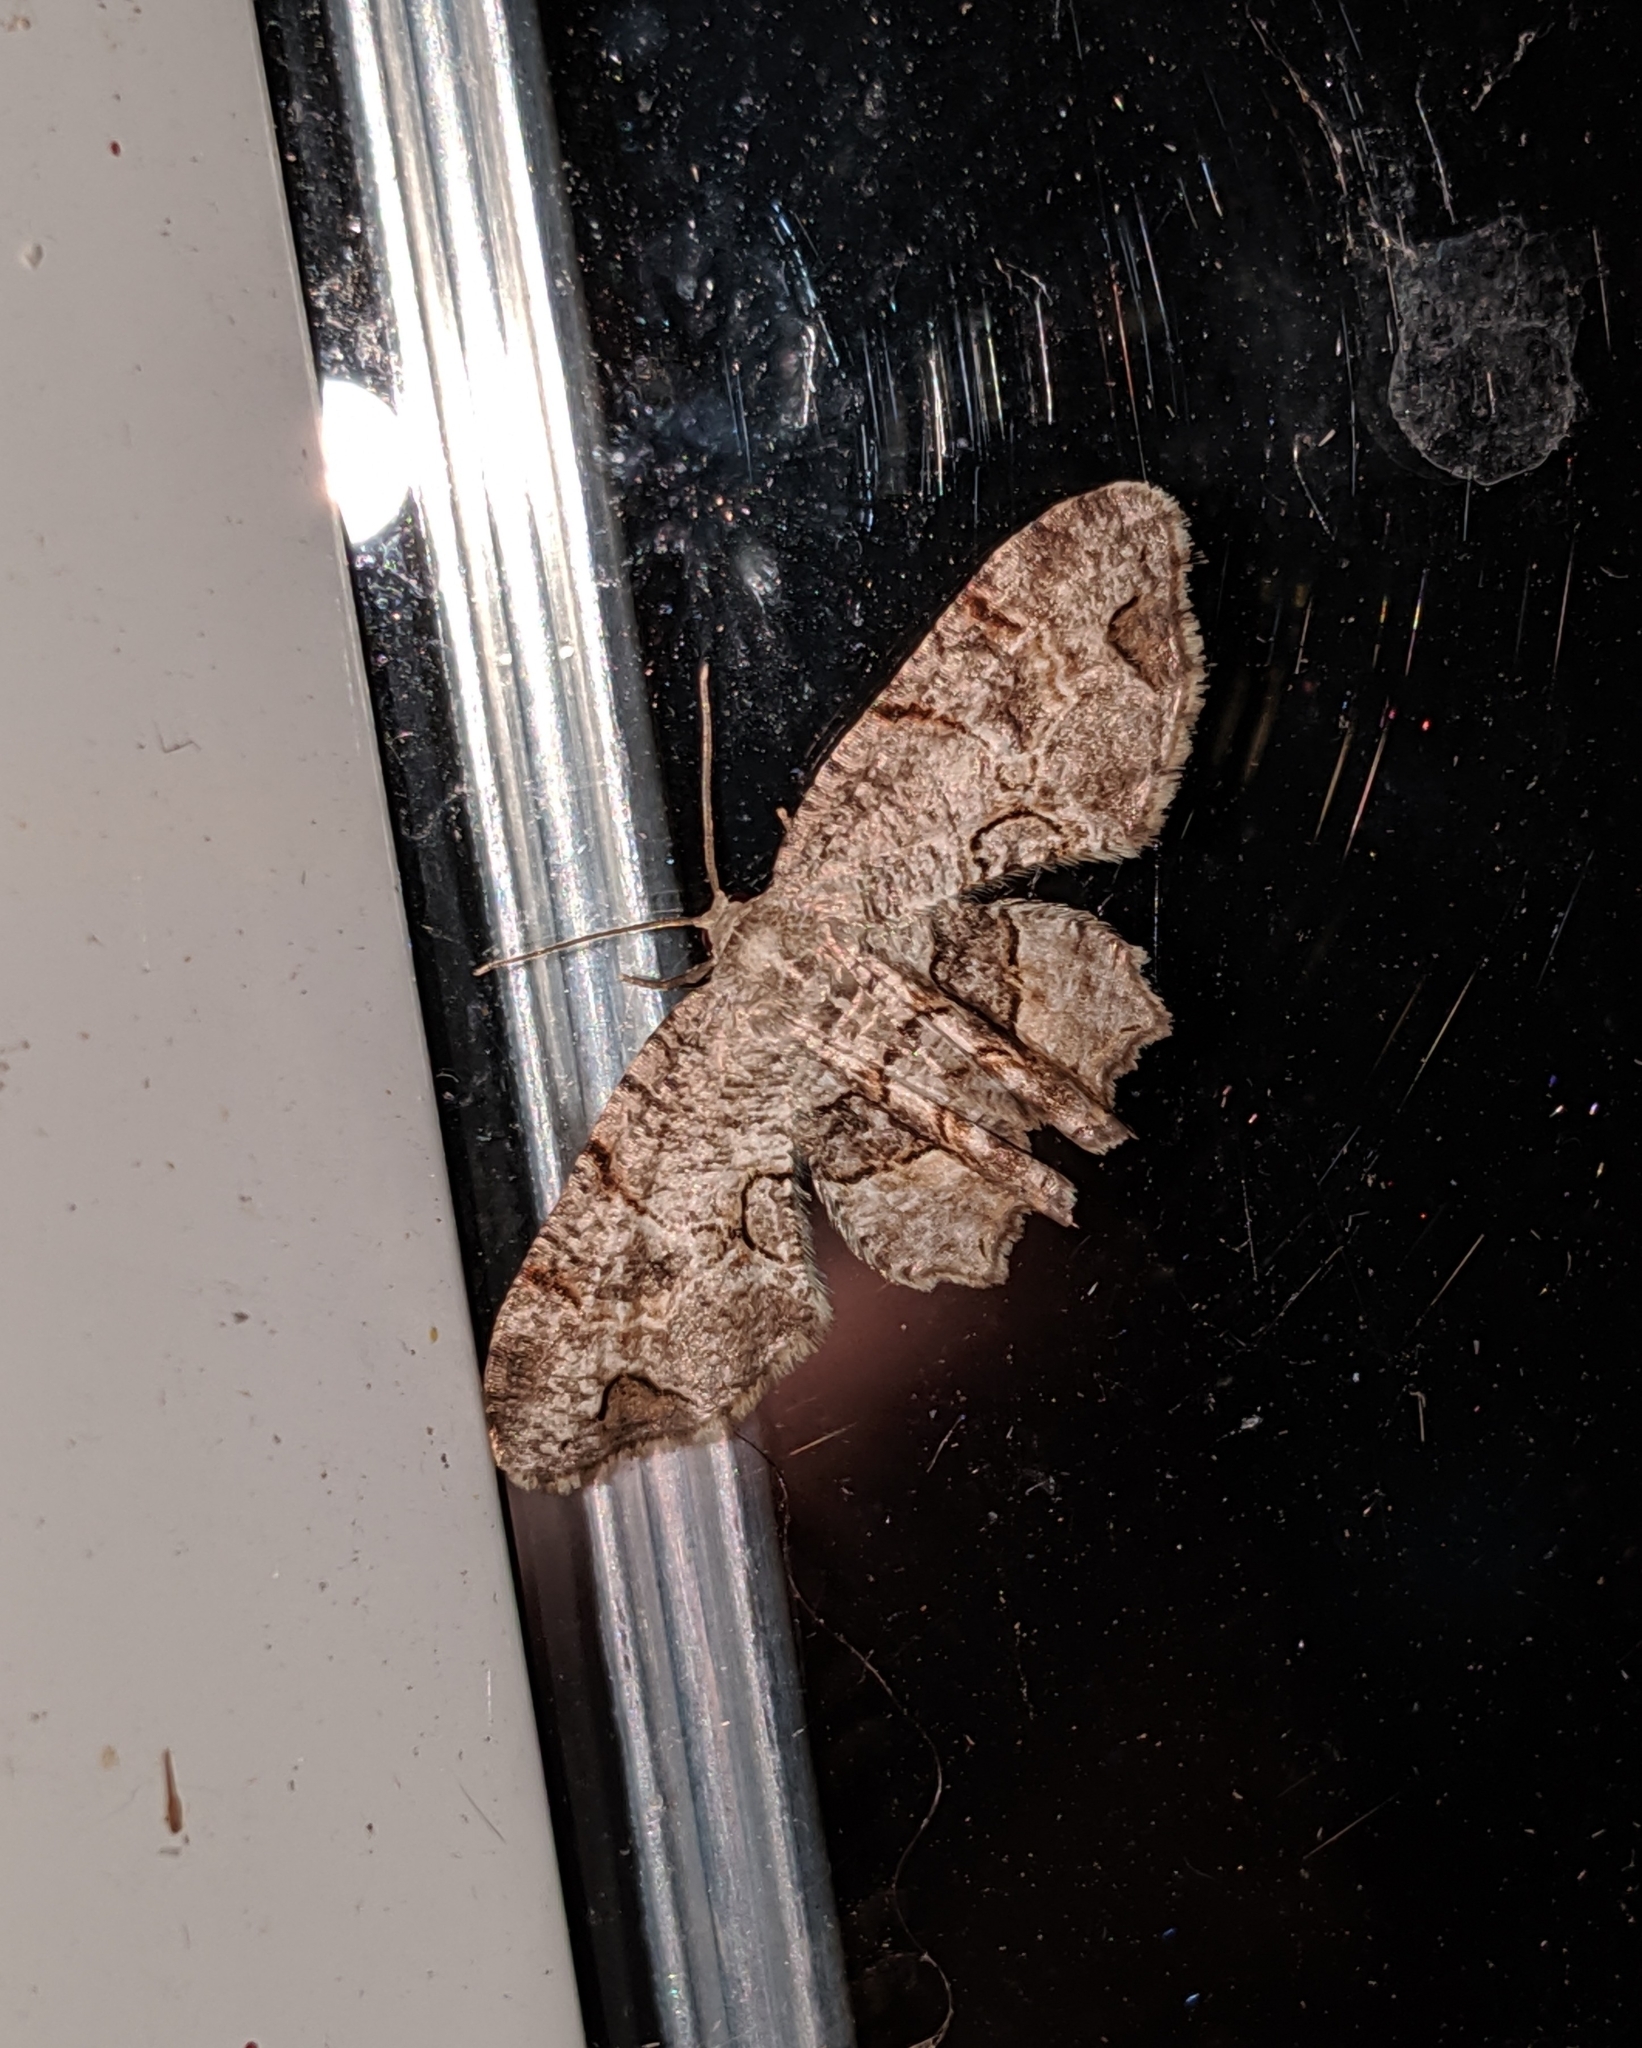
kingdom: Animalia
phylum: Arthropoda
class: Insecta
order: Lepidoptera
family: Uraniidae
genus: Epiplema
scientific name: Epiplema Callizzia amorata
